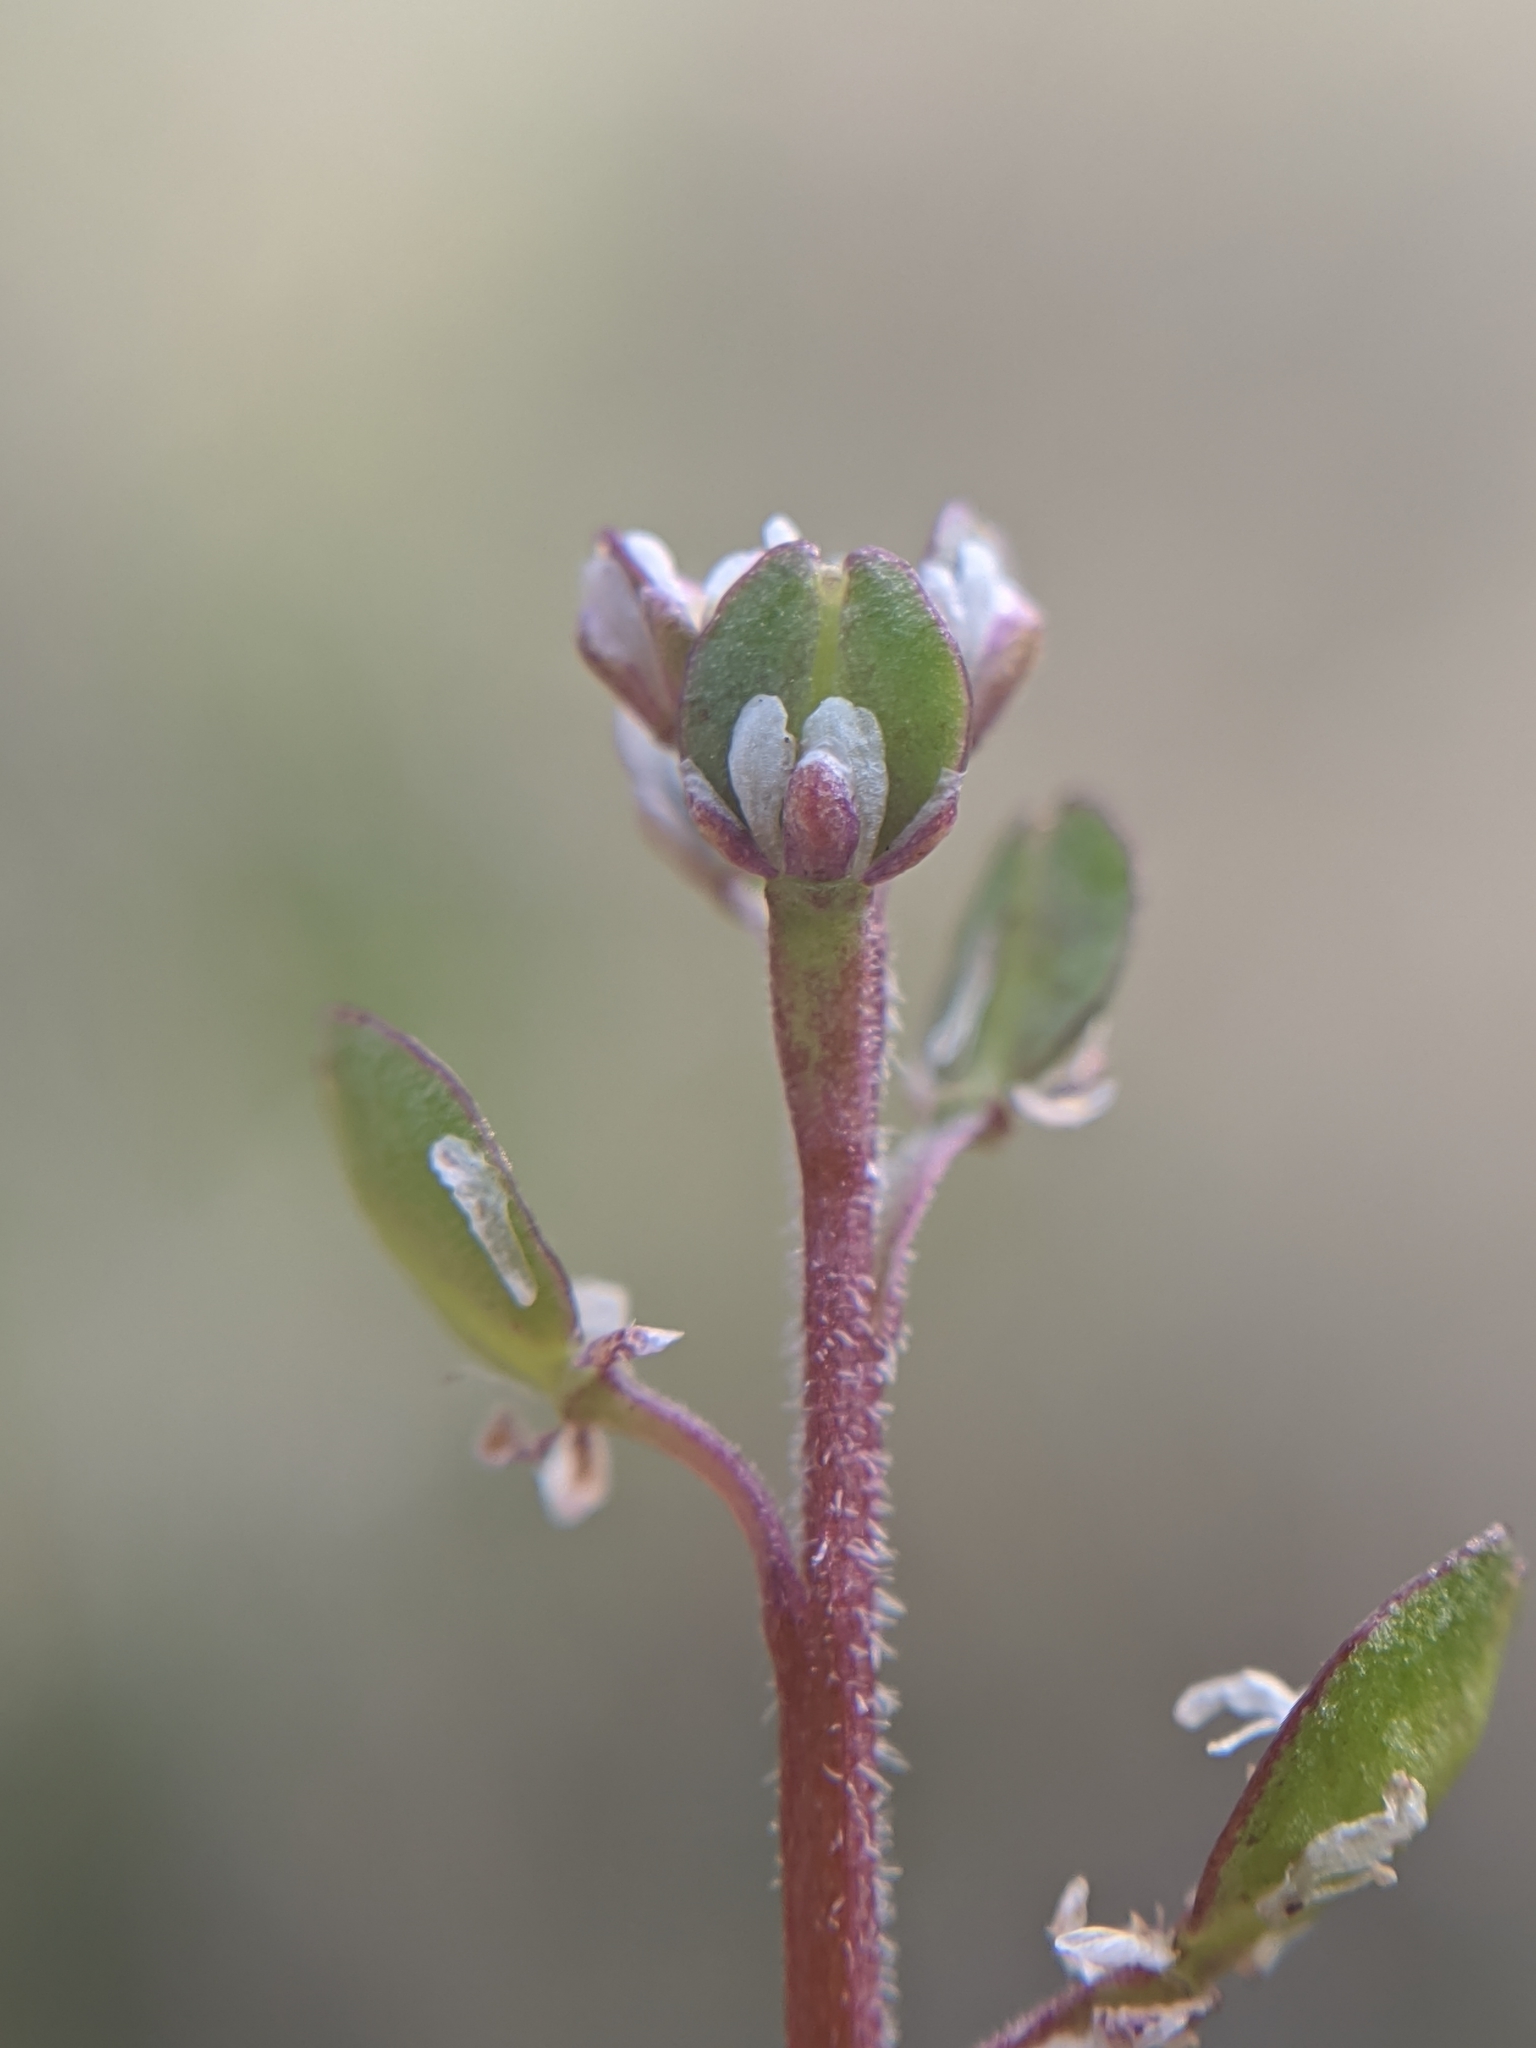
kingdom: Plantae
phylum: Tracheophyta
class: Magnoliopsida
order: Brassicales
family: Brassicaceae
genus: Lepidium
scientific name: Lepidium nitidum
